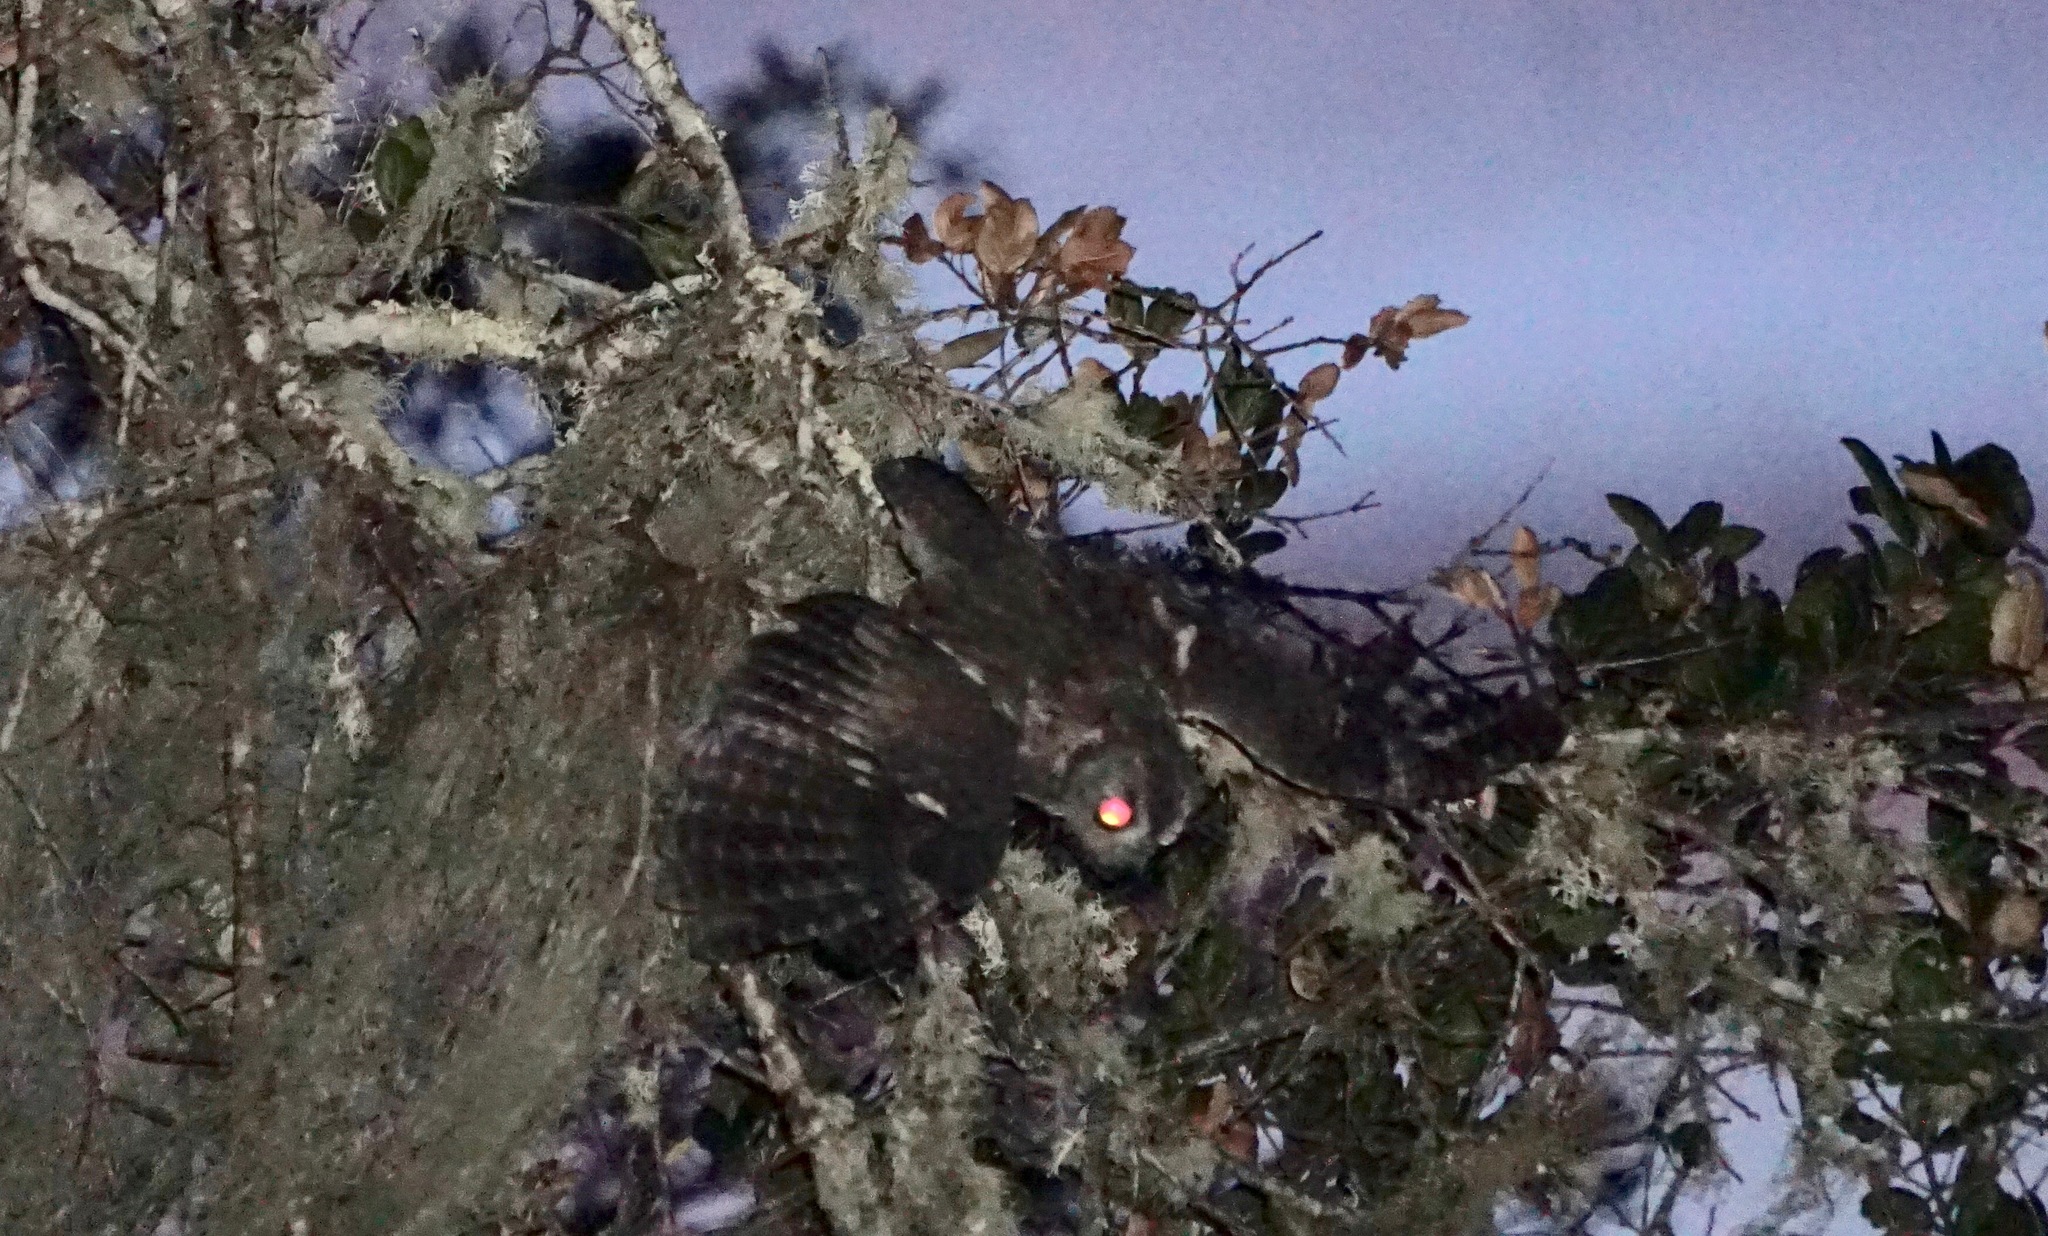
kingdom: Animalia
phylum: Chordata
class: Aves
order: Strigiformes
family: Strigidae
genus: Megascops
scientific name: Megascops kennicottii
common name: Western screech-owl
